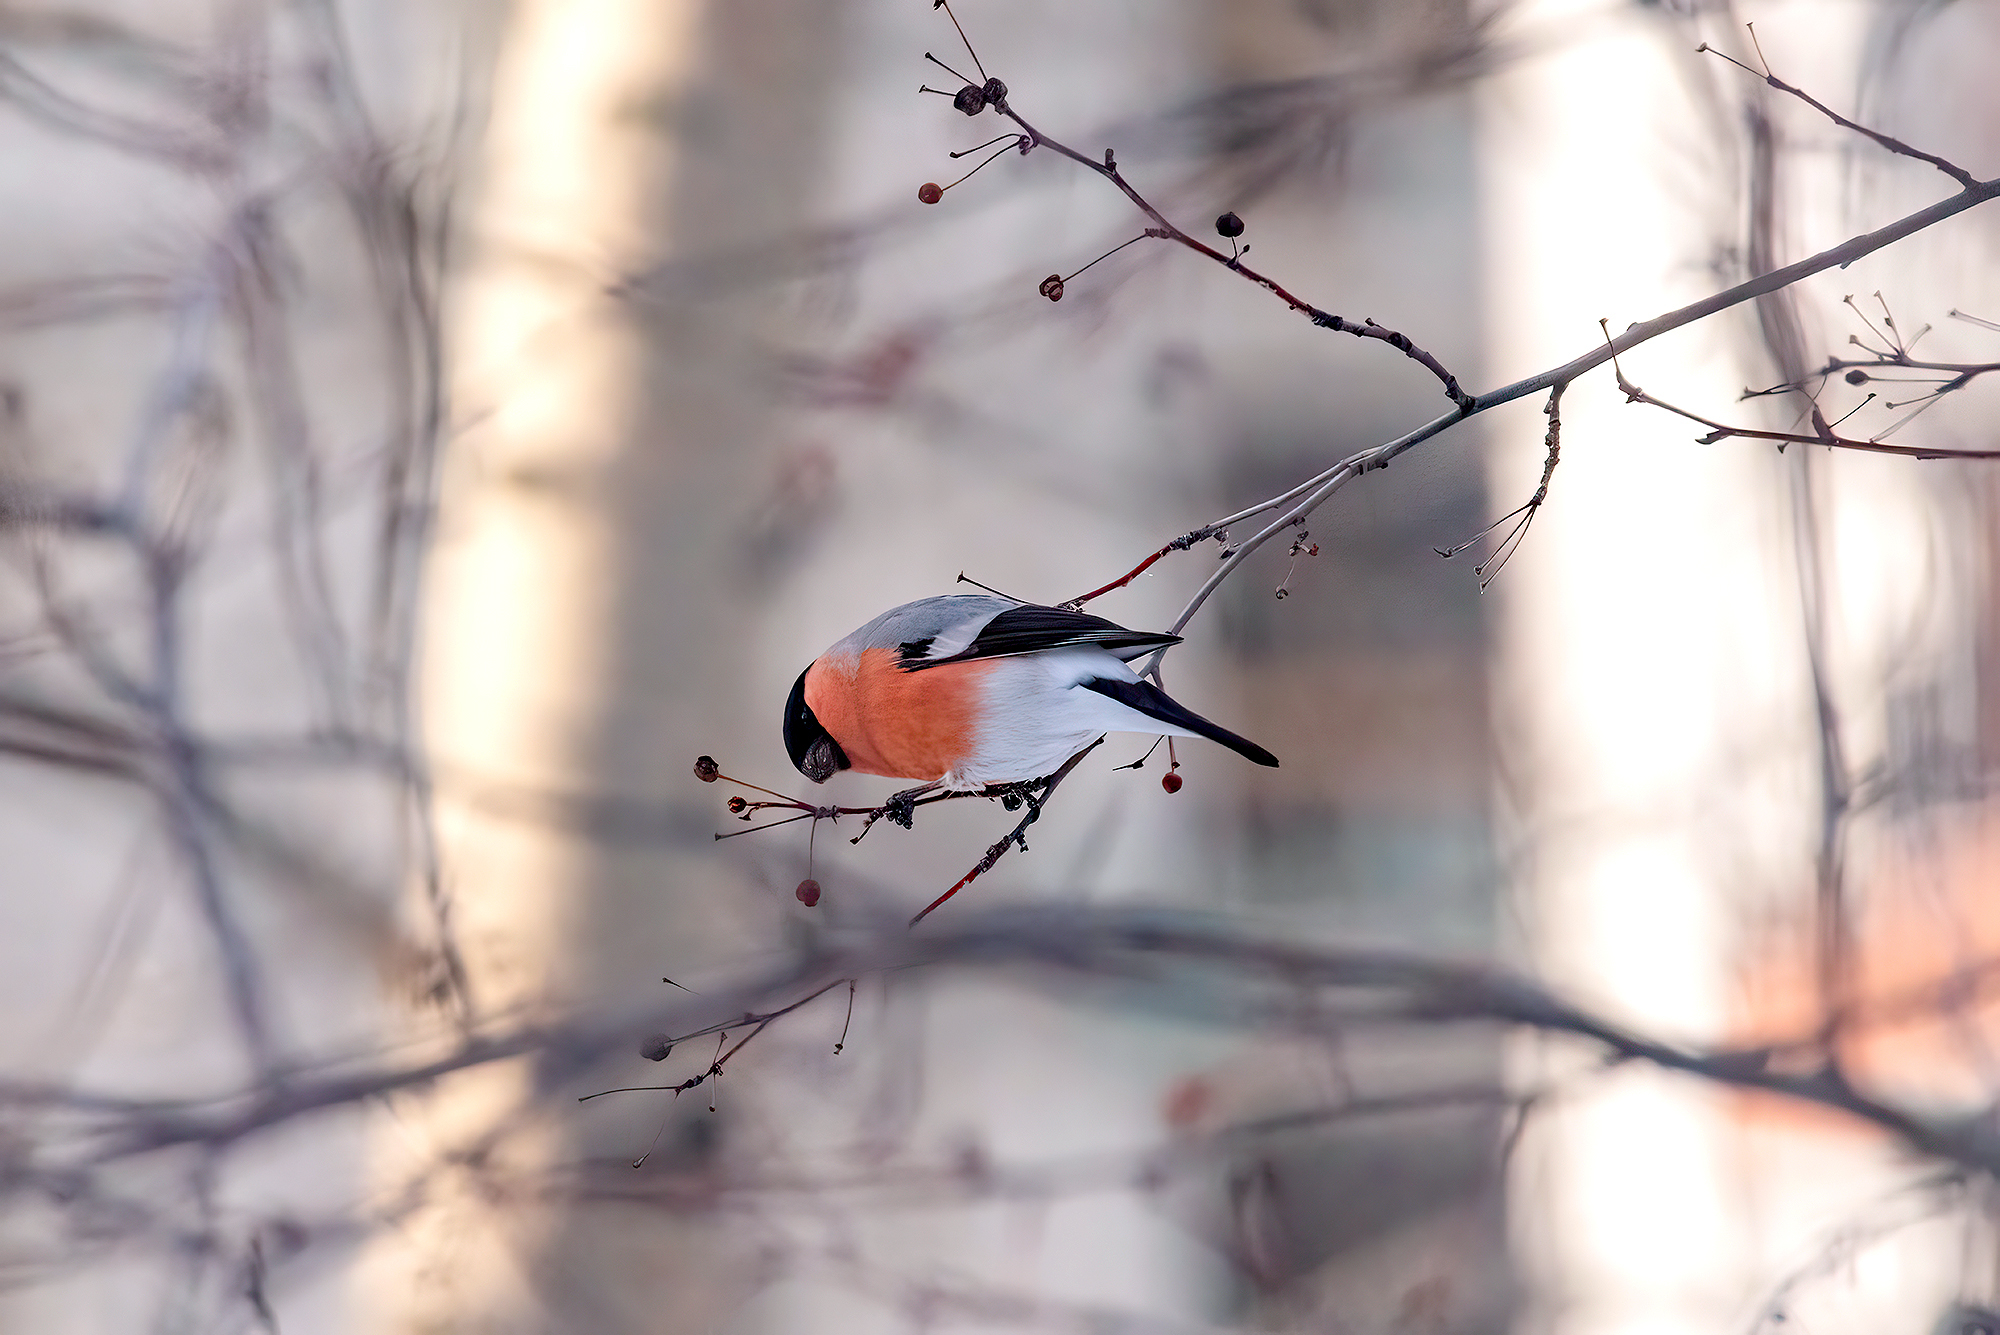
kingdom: Animalia
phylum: Chordata
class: Aves
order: Passeriformes
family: Fringillidae
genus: Pyrrhula
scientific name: Pyrrhula pyrrhula
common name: Eurasian bullfinch
